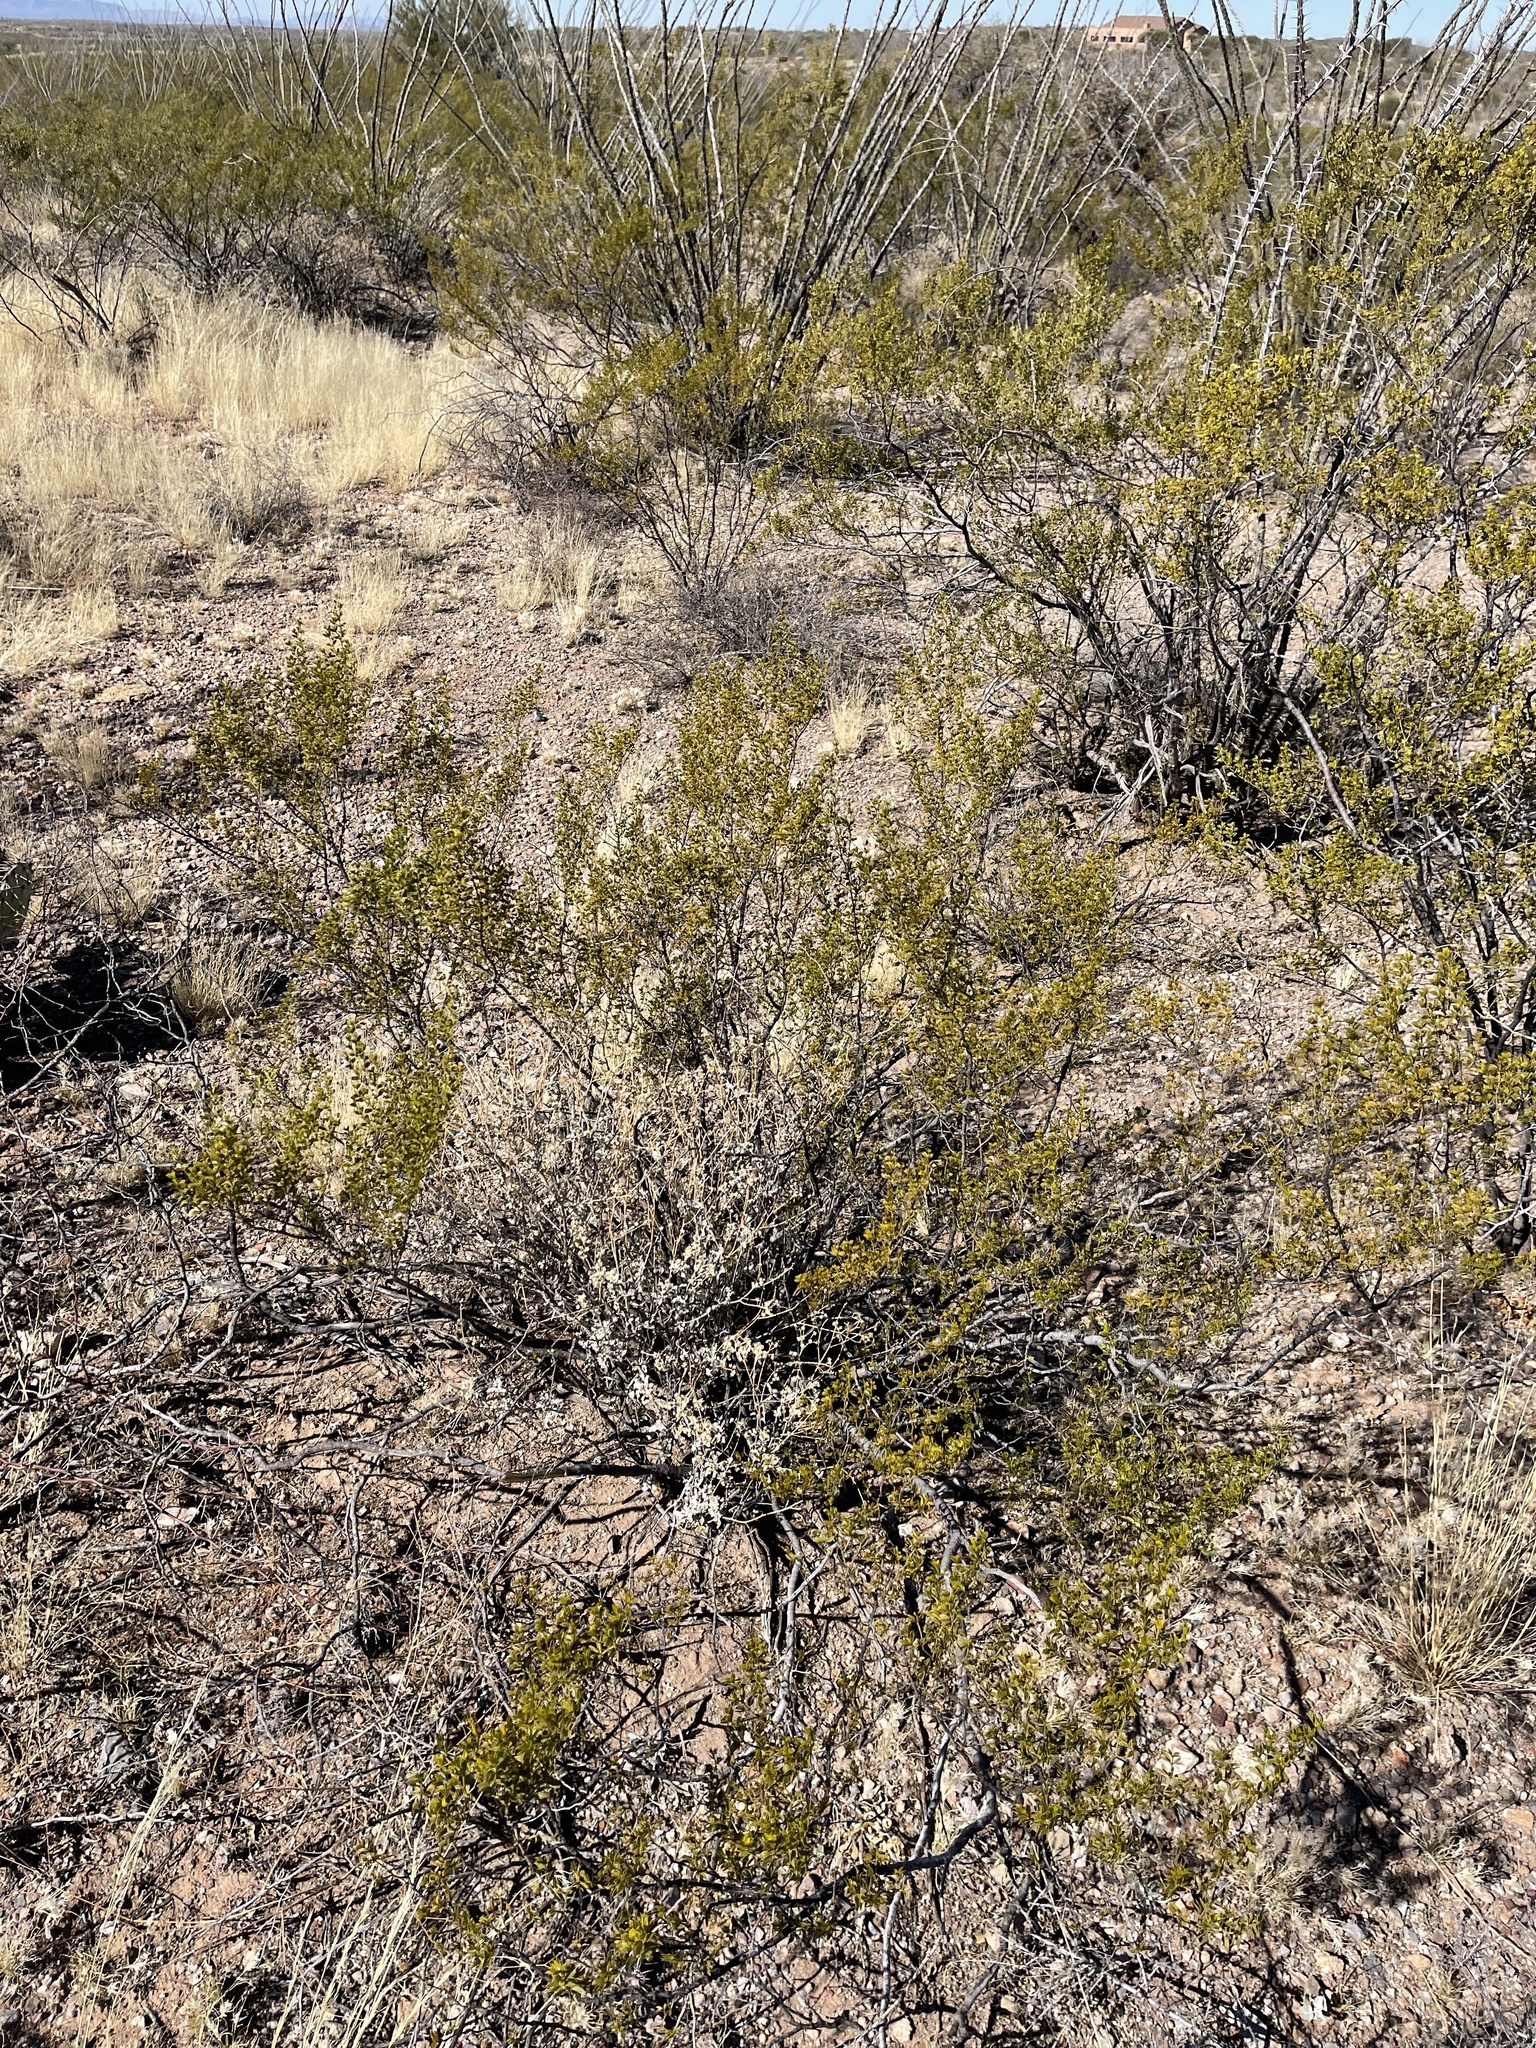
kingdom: Plantae
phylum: Tracheophyta
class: Magnoliopsida
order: Zygophyllales
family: Zygophyllaceae
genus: Larrea
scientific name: Larrea tridentata
